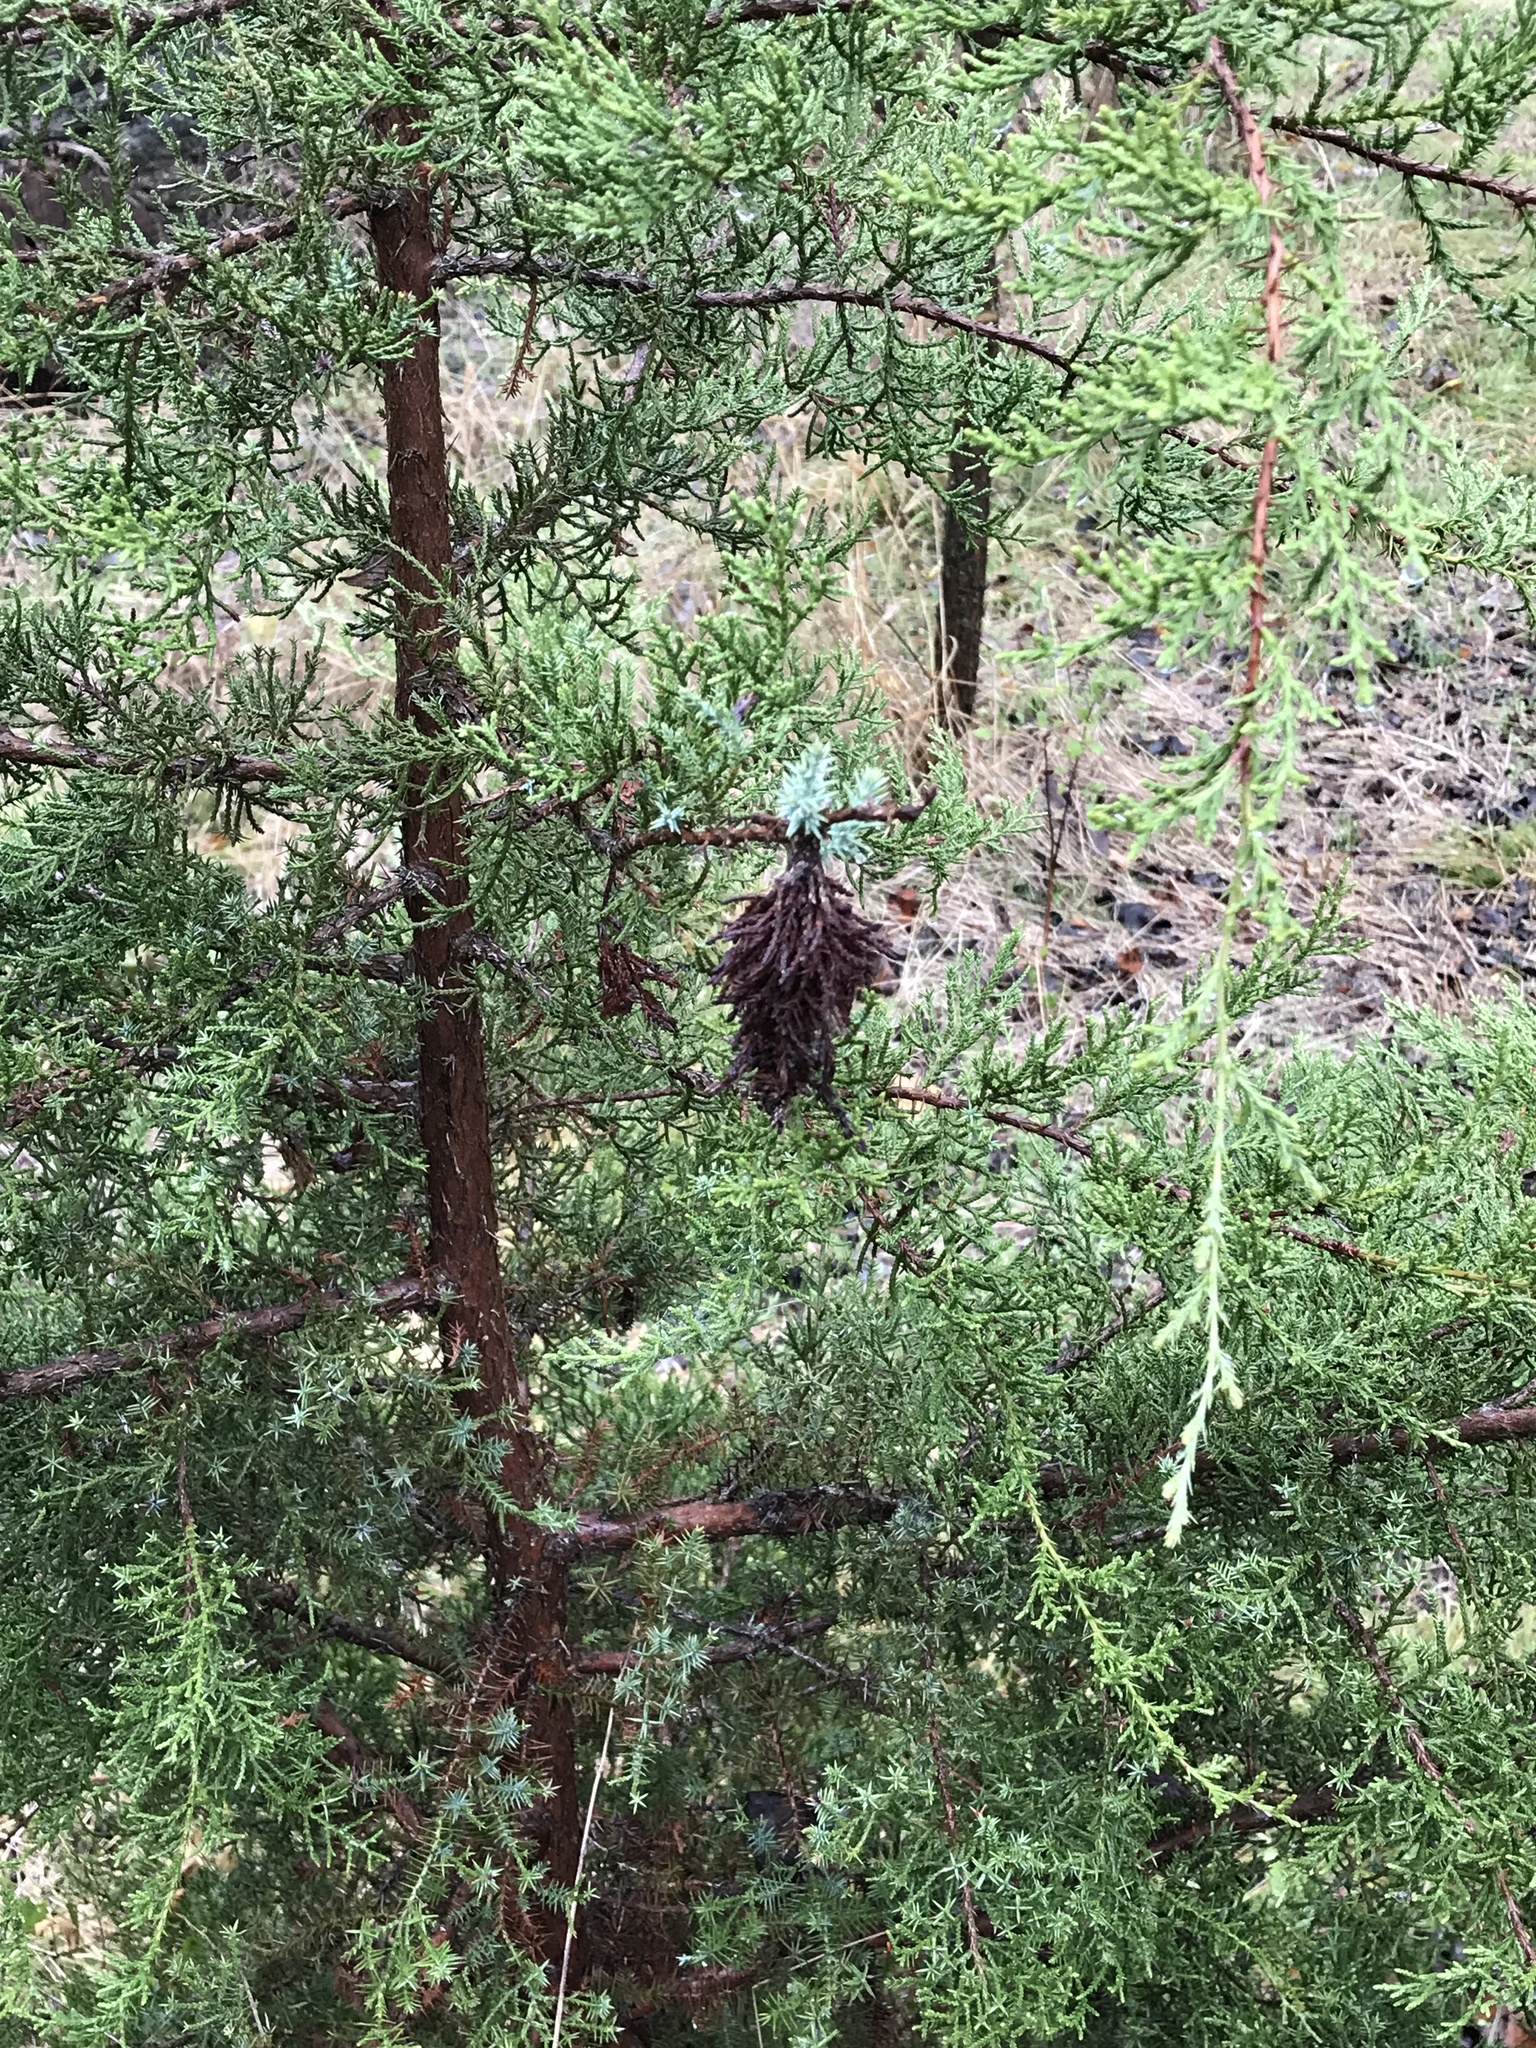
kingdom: Animalia
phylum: Arthropoda
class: Insecta
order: Lepidoptera
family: Psychidae
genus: Thyridopteryx
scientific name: Thyridopteryx ephemeraeformis
